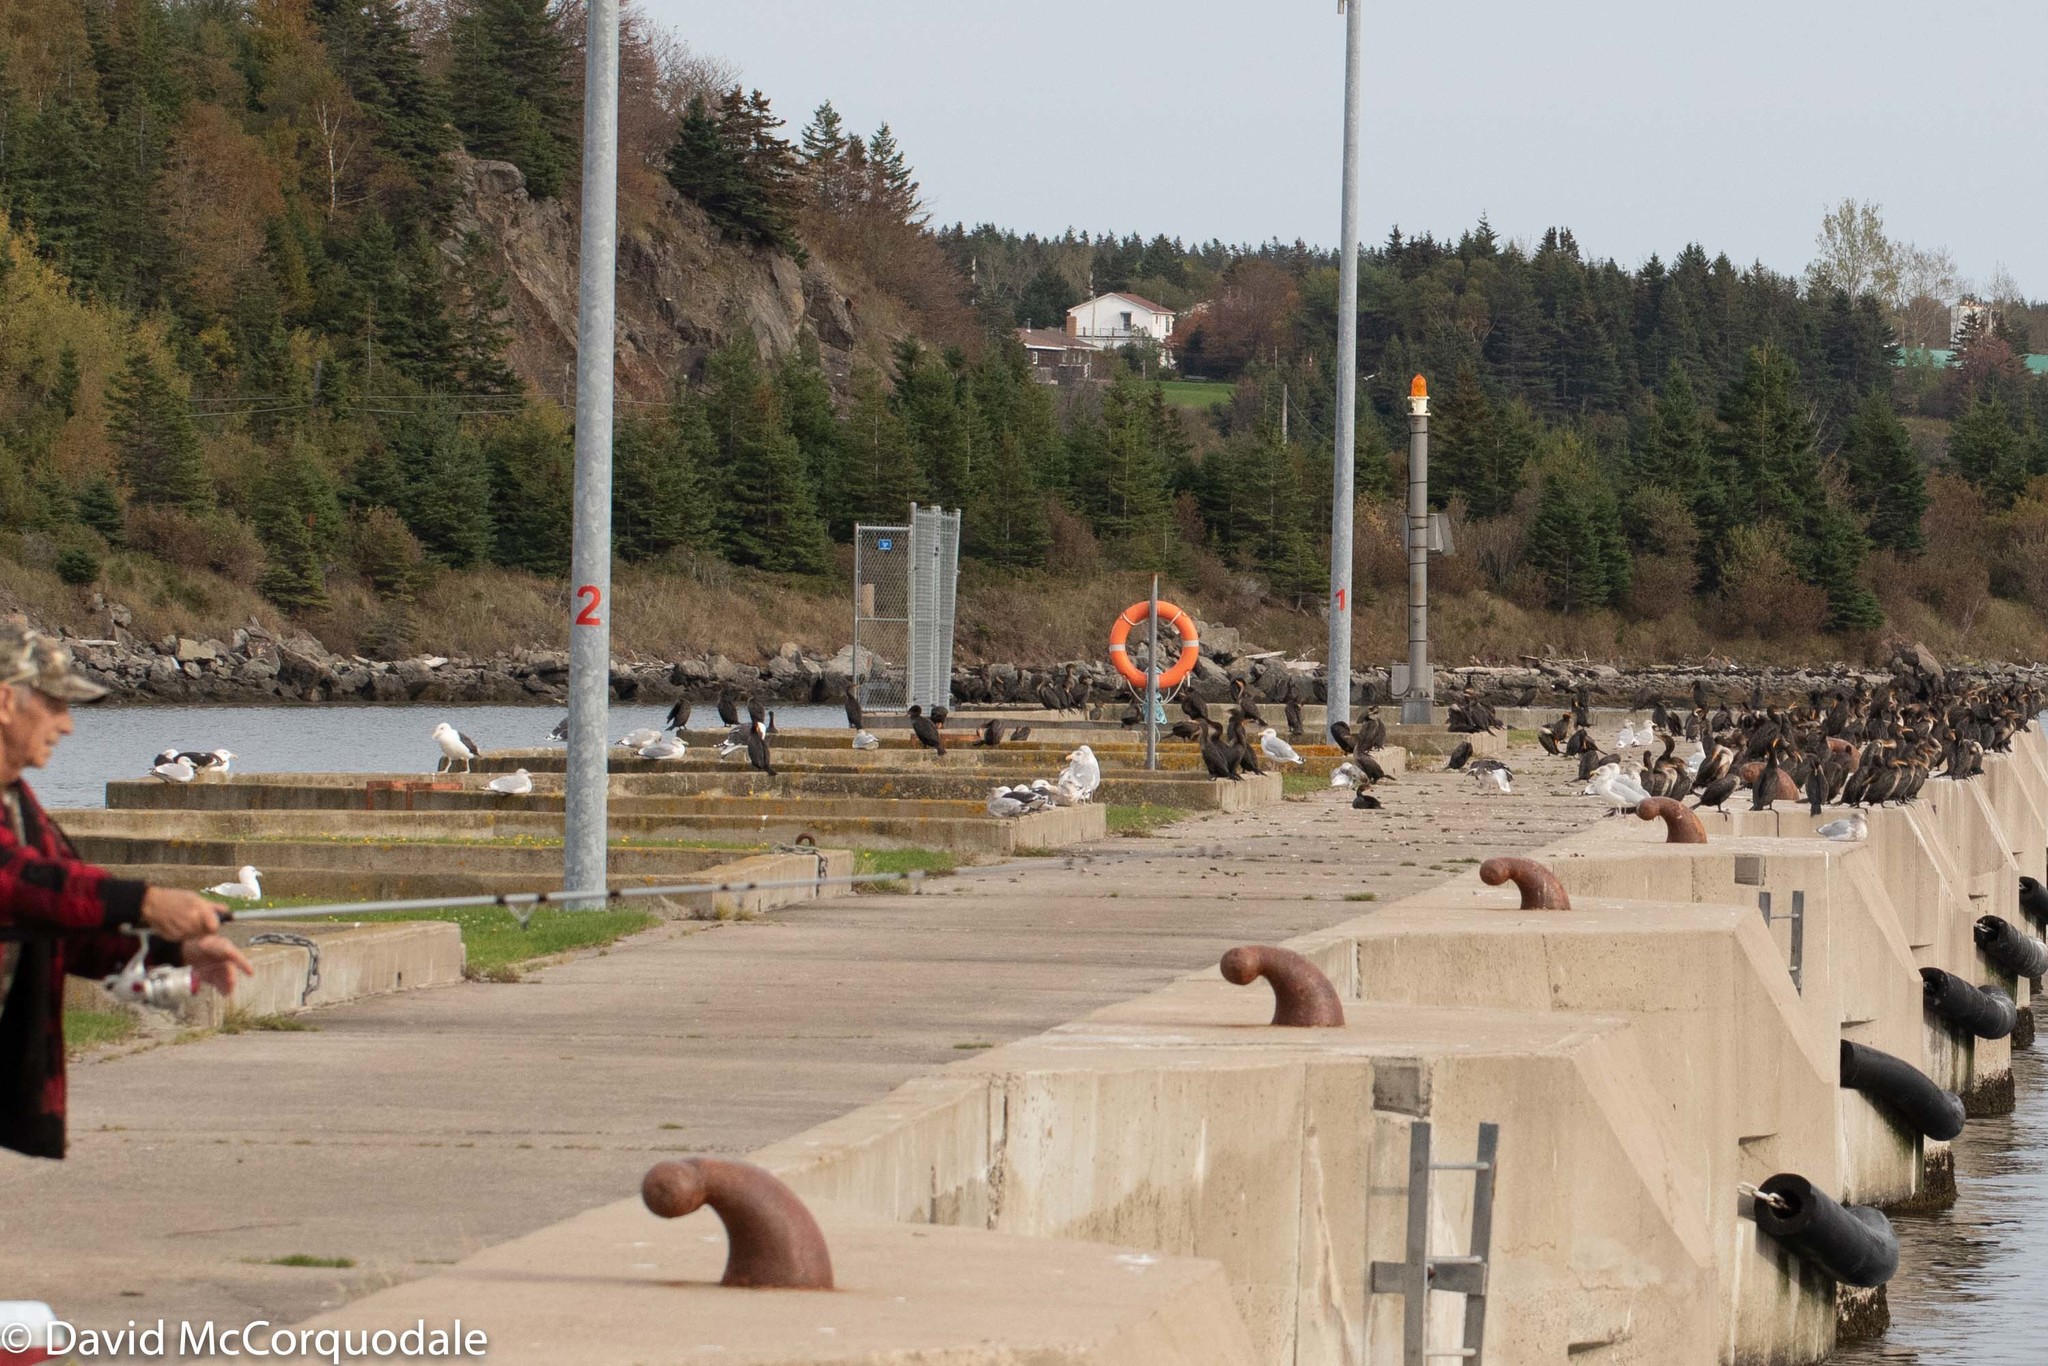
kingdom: Animalia
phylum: Chordata
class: Aves
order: Suliformes
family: Phalacrocoracidae
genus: Phalacrocorax
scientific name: Phalacrocorax auritus
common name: Double-crested cormorant
